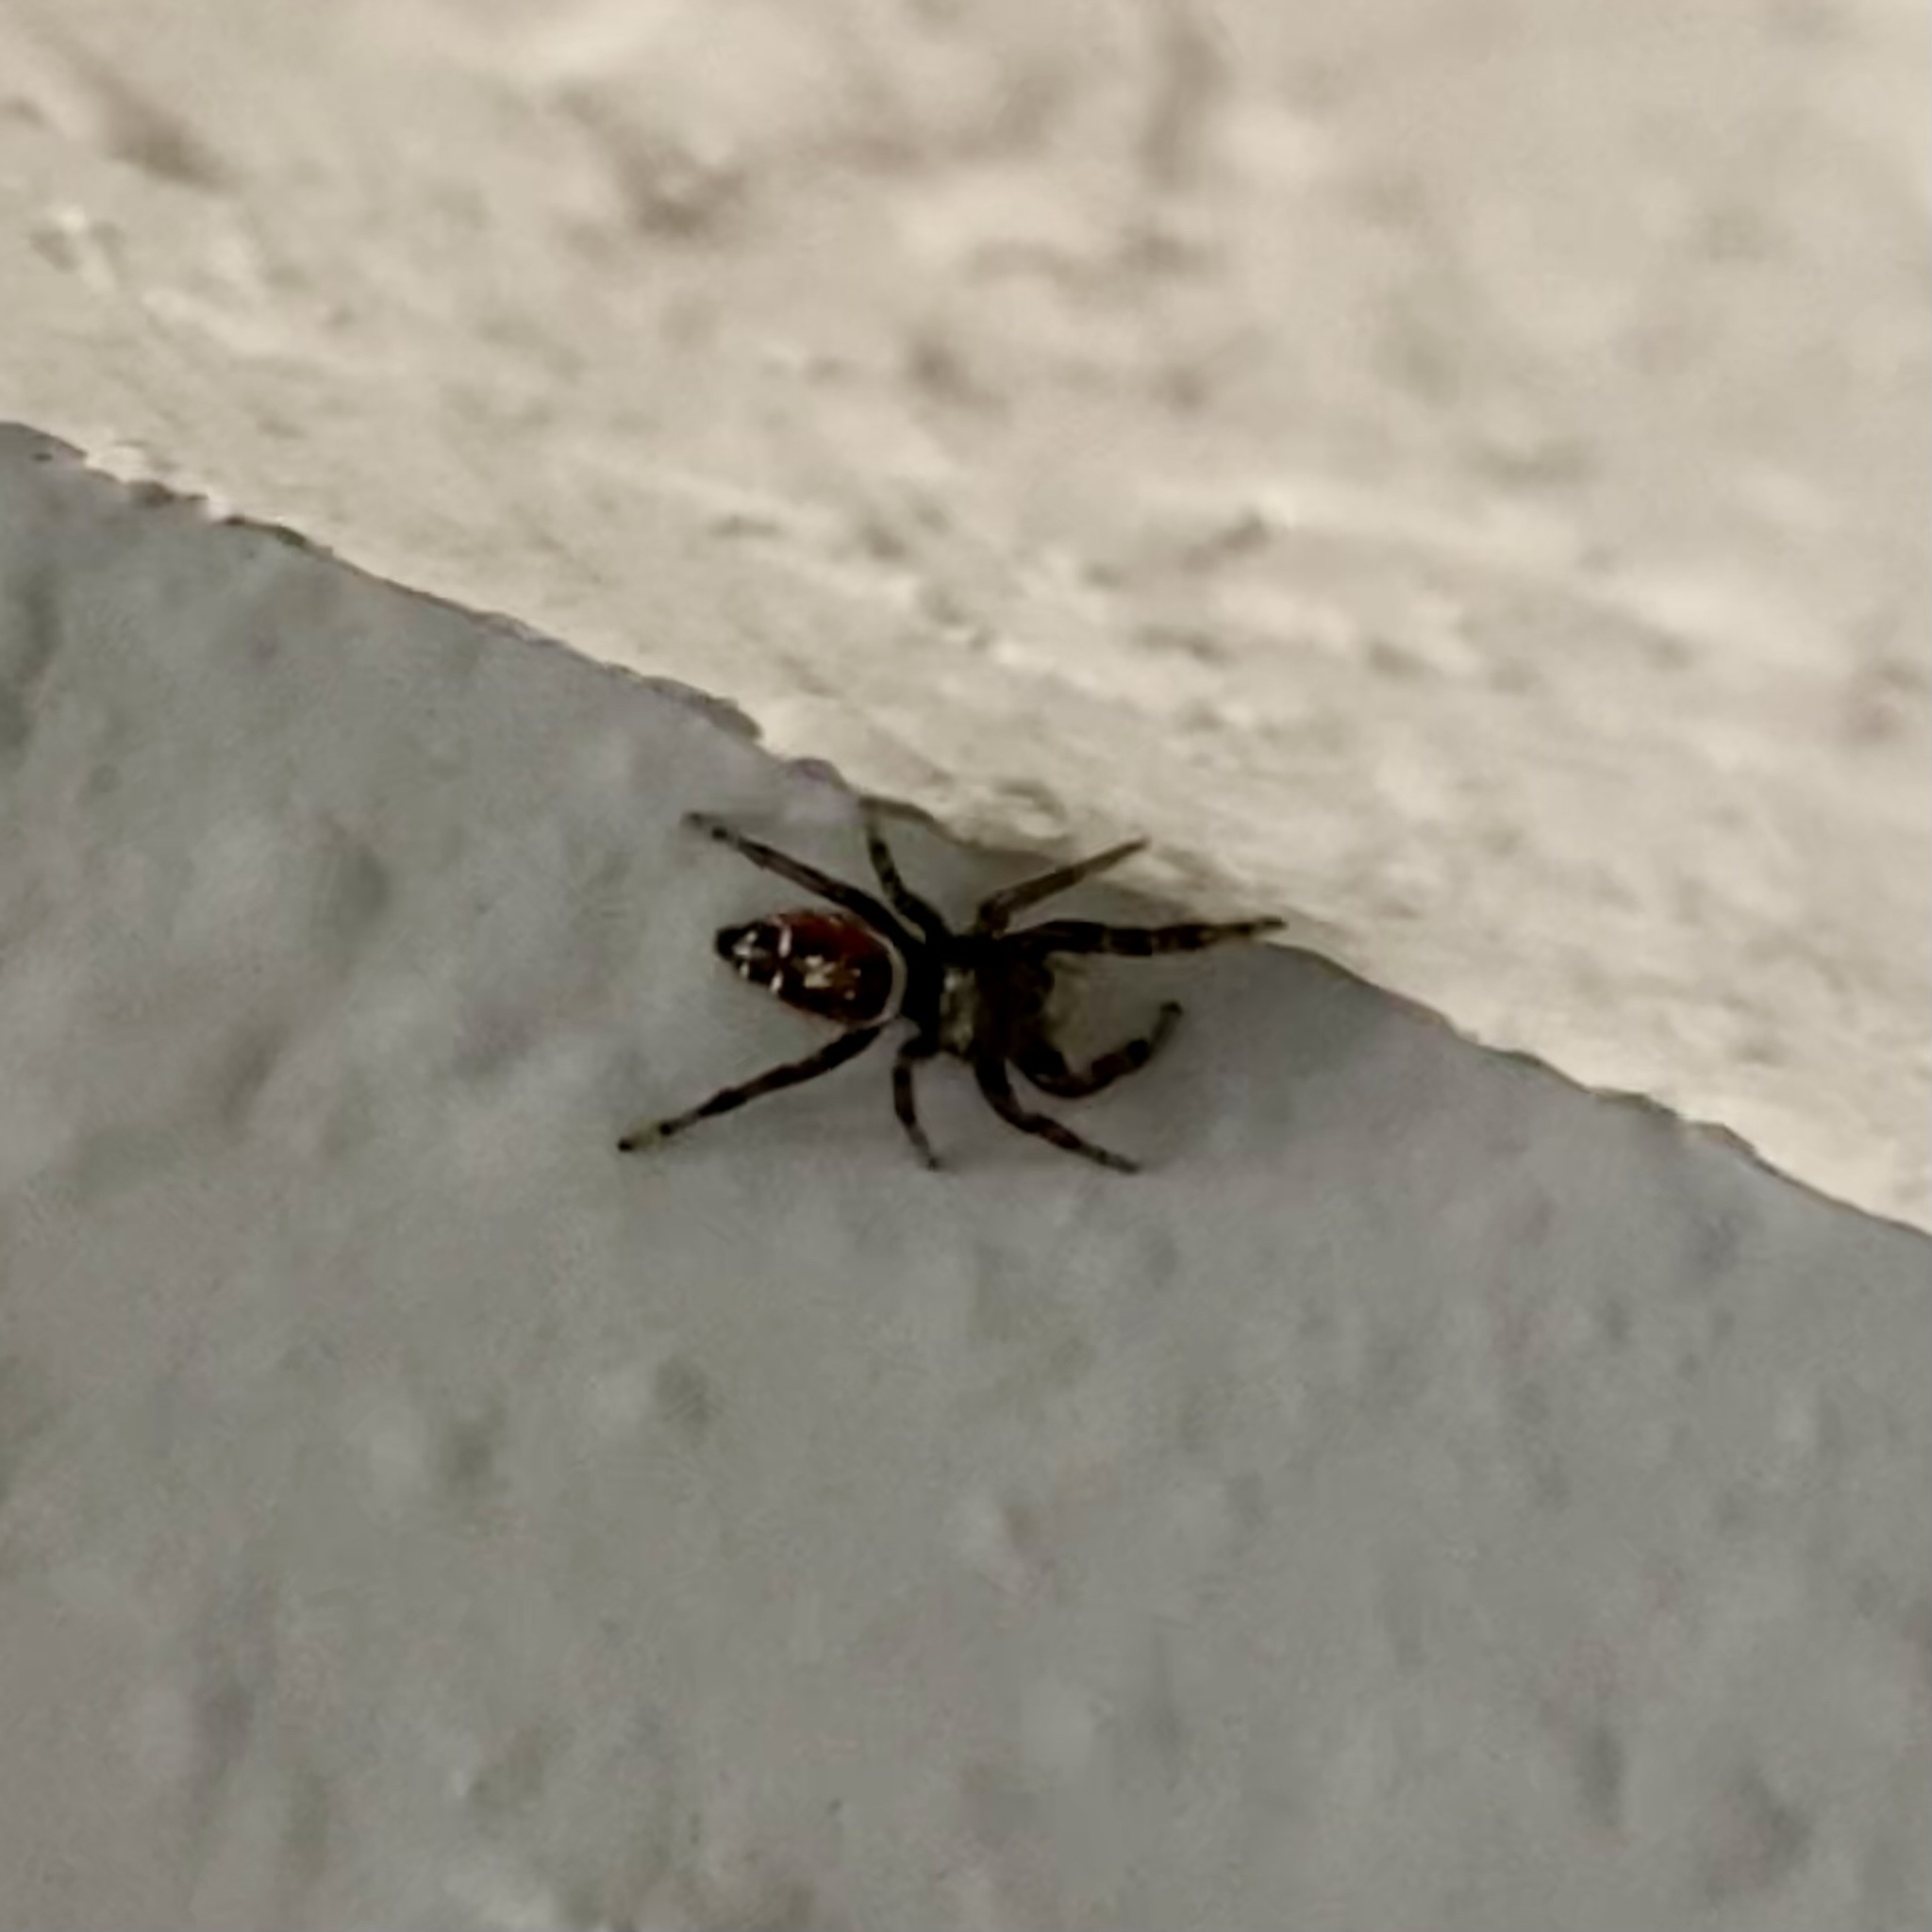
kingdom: Animalia
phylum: Arthropoda
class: Arachnida
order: Araneae
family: Salticidae
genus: Phidippus
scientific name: Phidippus carneus
